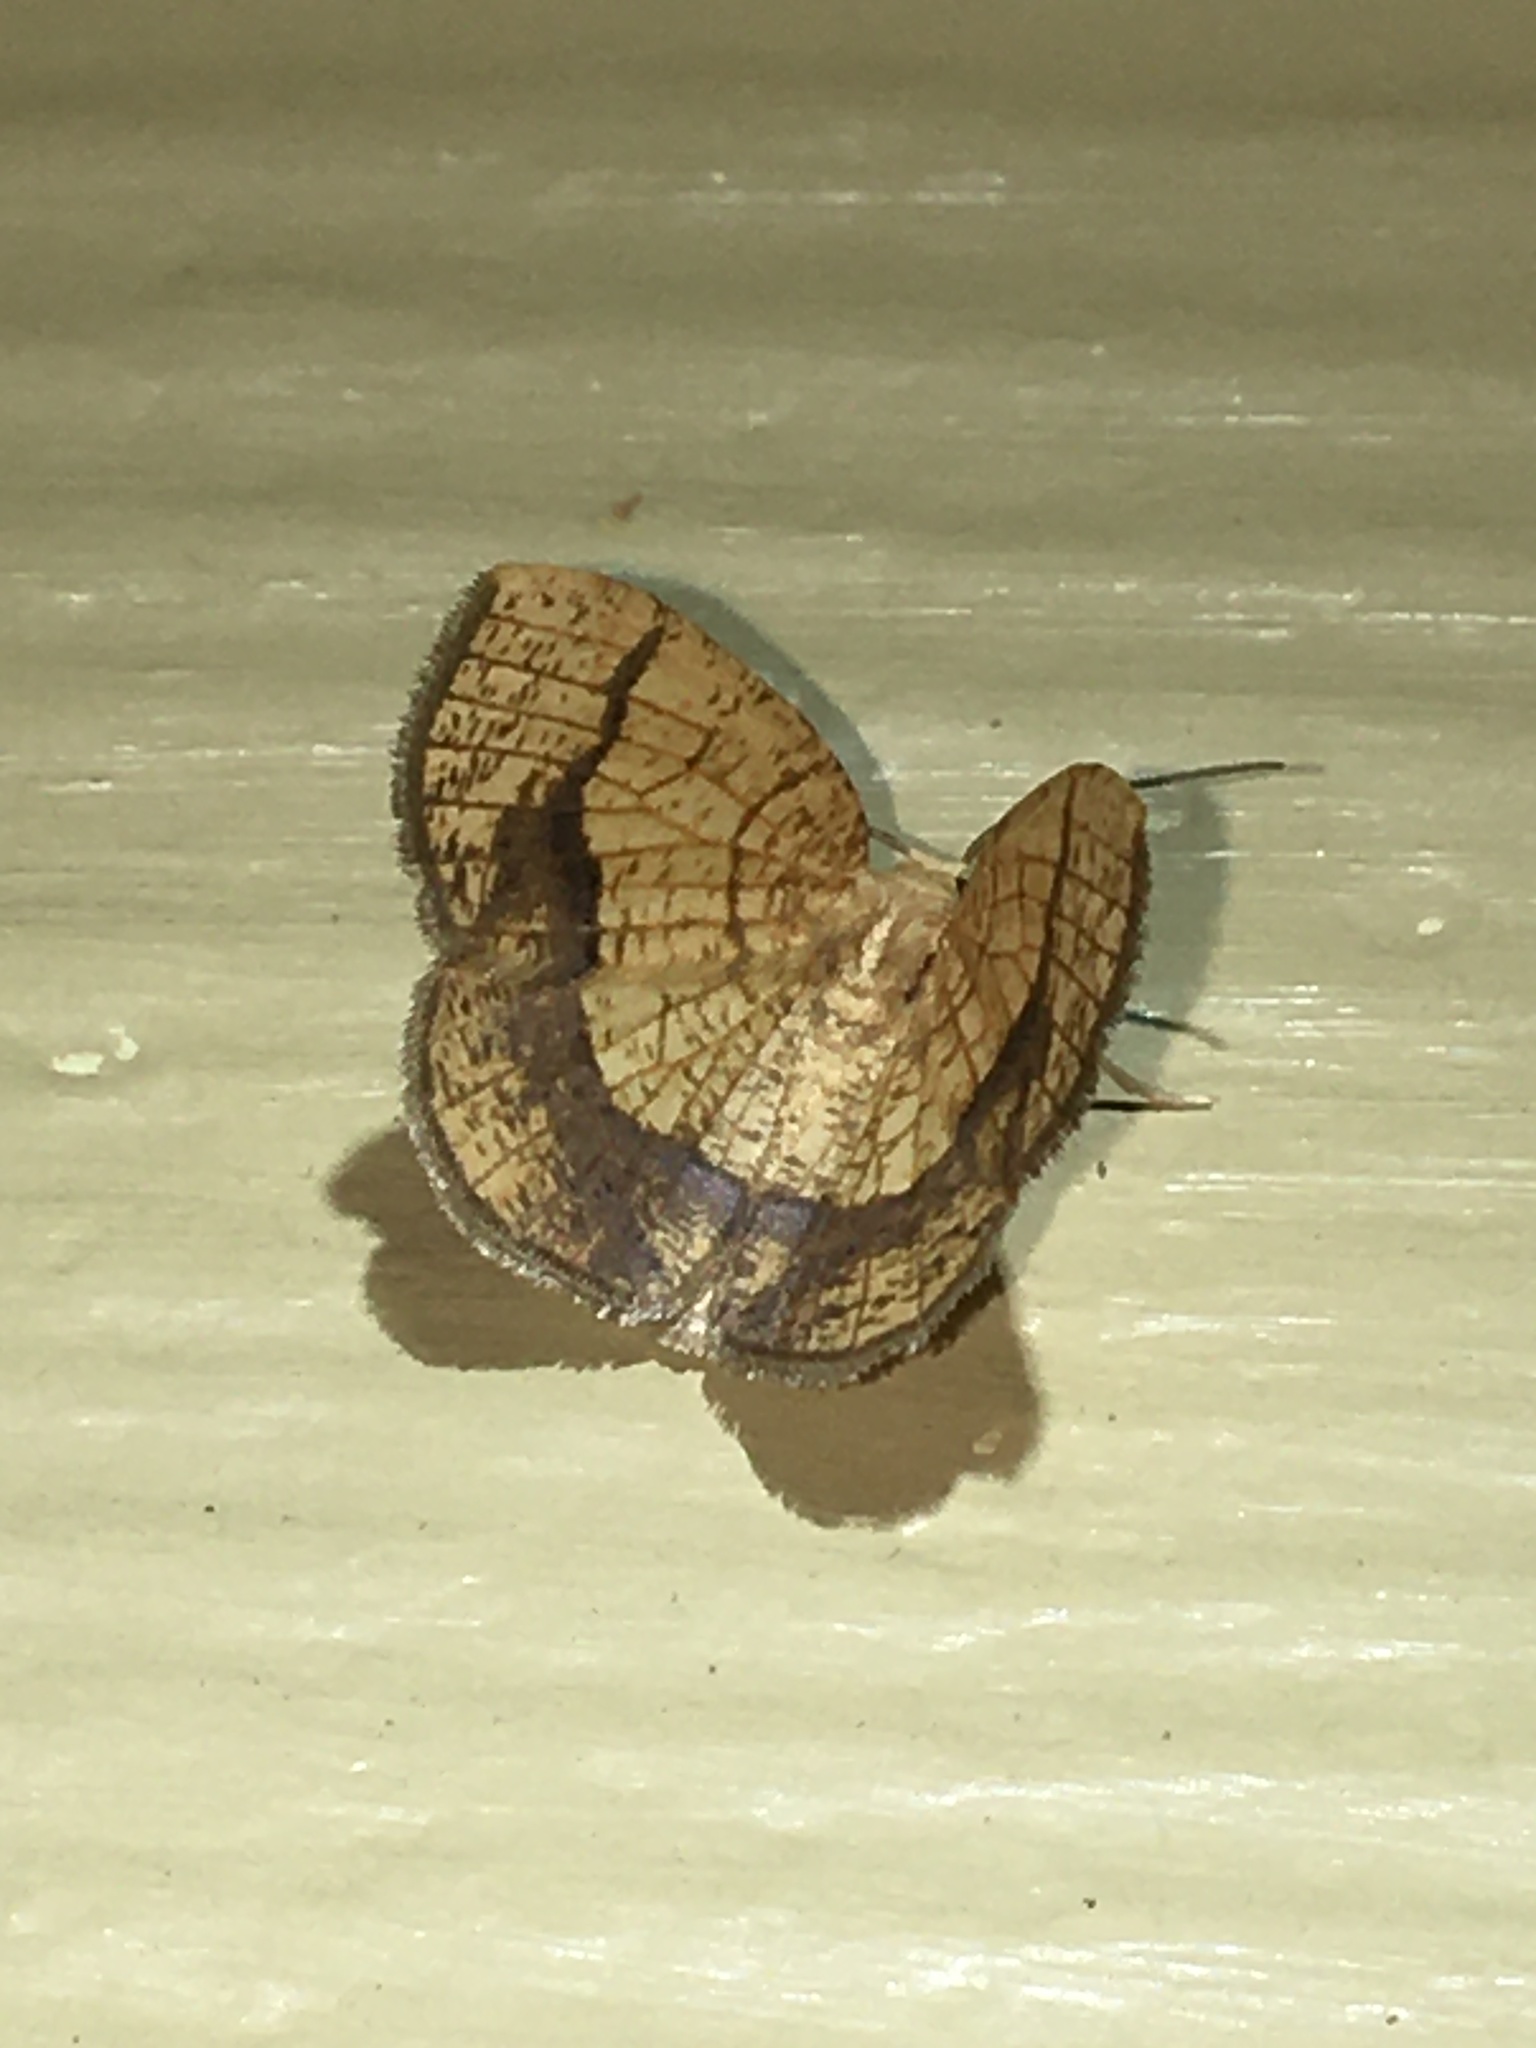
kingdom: Animalia
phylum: Arthropoda
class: Insecta
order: Lepidoptera
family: Geometridae
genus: Nematocampa
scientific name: Nematocampa resistaria
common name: Horned spanworm moth
